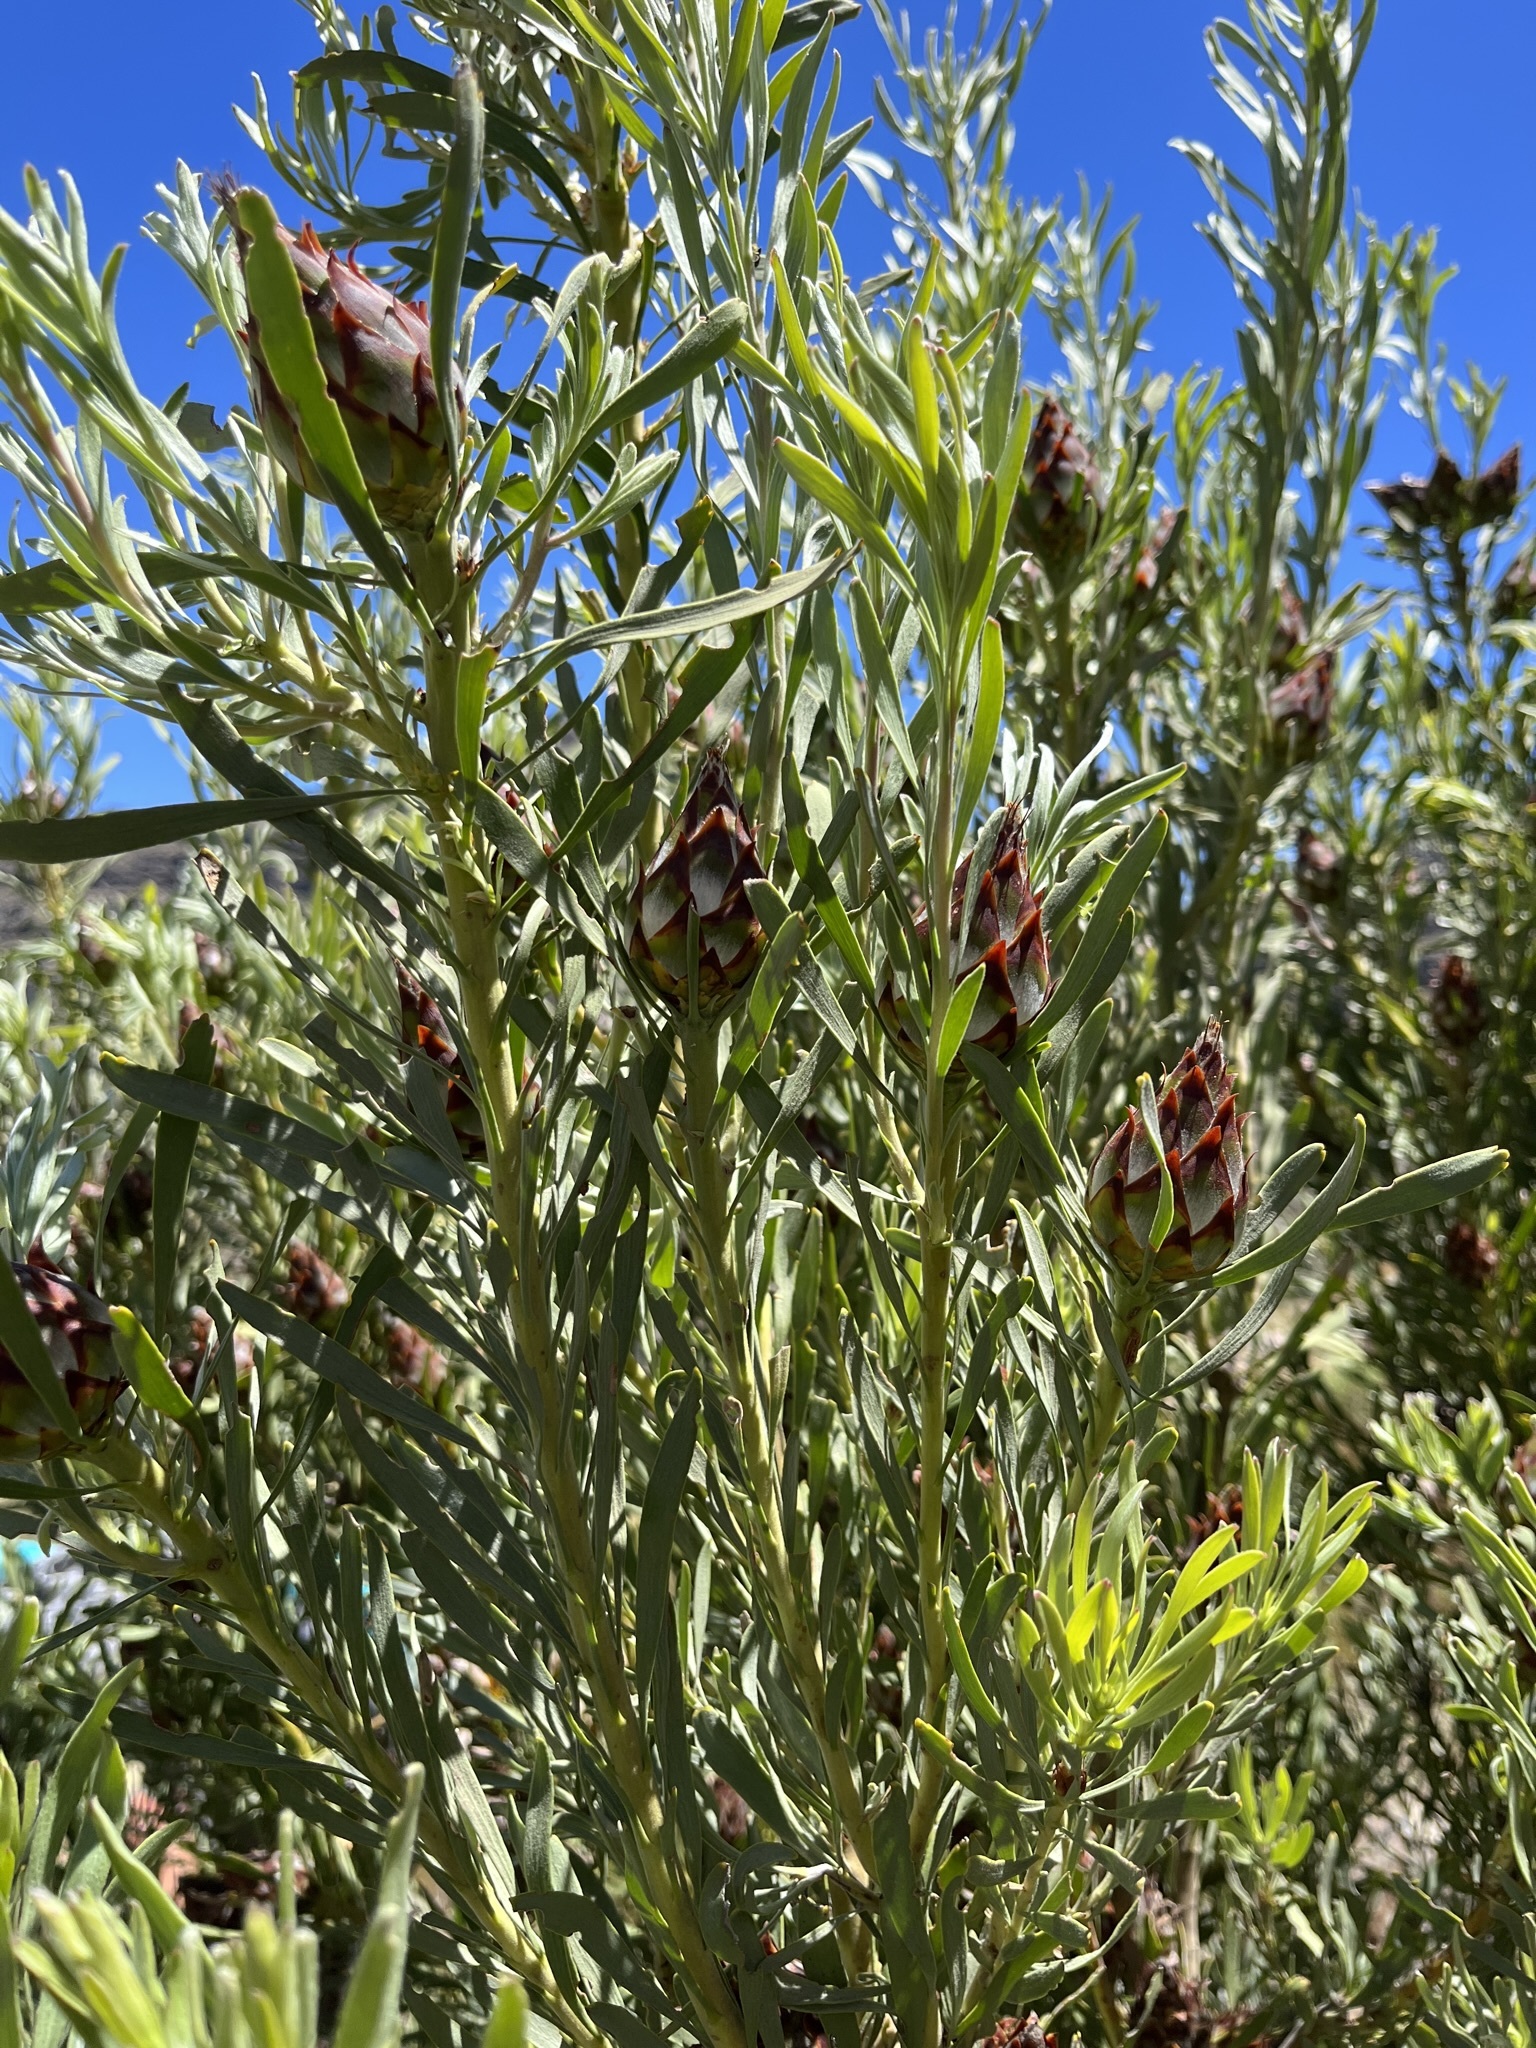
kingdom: Plantae
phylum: Tracheophyta
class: Magnoliopsida
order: Proteales
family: Proteaceae
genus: Leucadendron
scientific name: Leucadendron rubrum
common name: Spinning top
